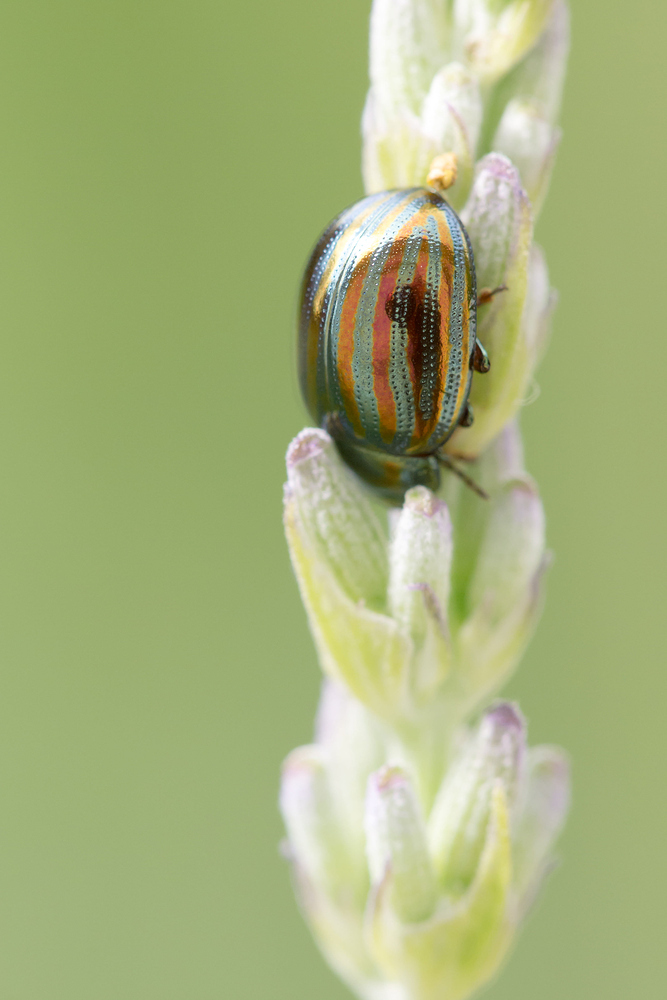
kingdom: Animalia
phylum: Arthropoda
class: Insecta
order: Coleoptera
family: Chrysomelidae
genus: Chrysolina
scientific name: Chrysolina americana
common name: Rosemary beetle
